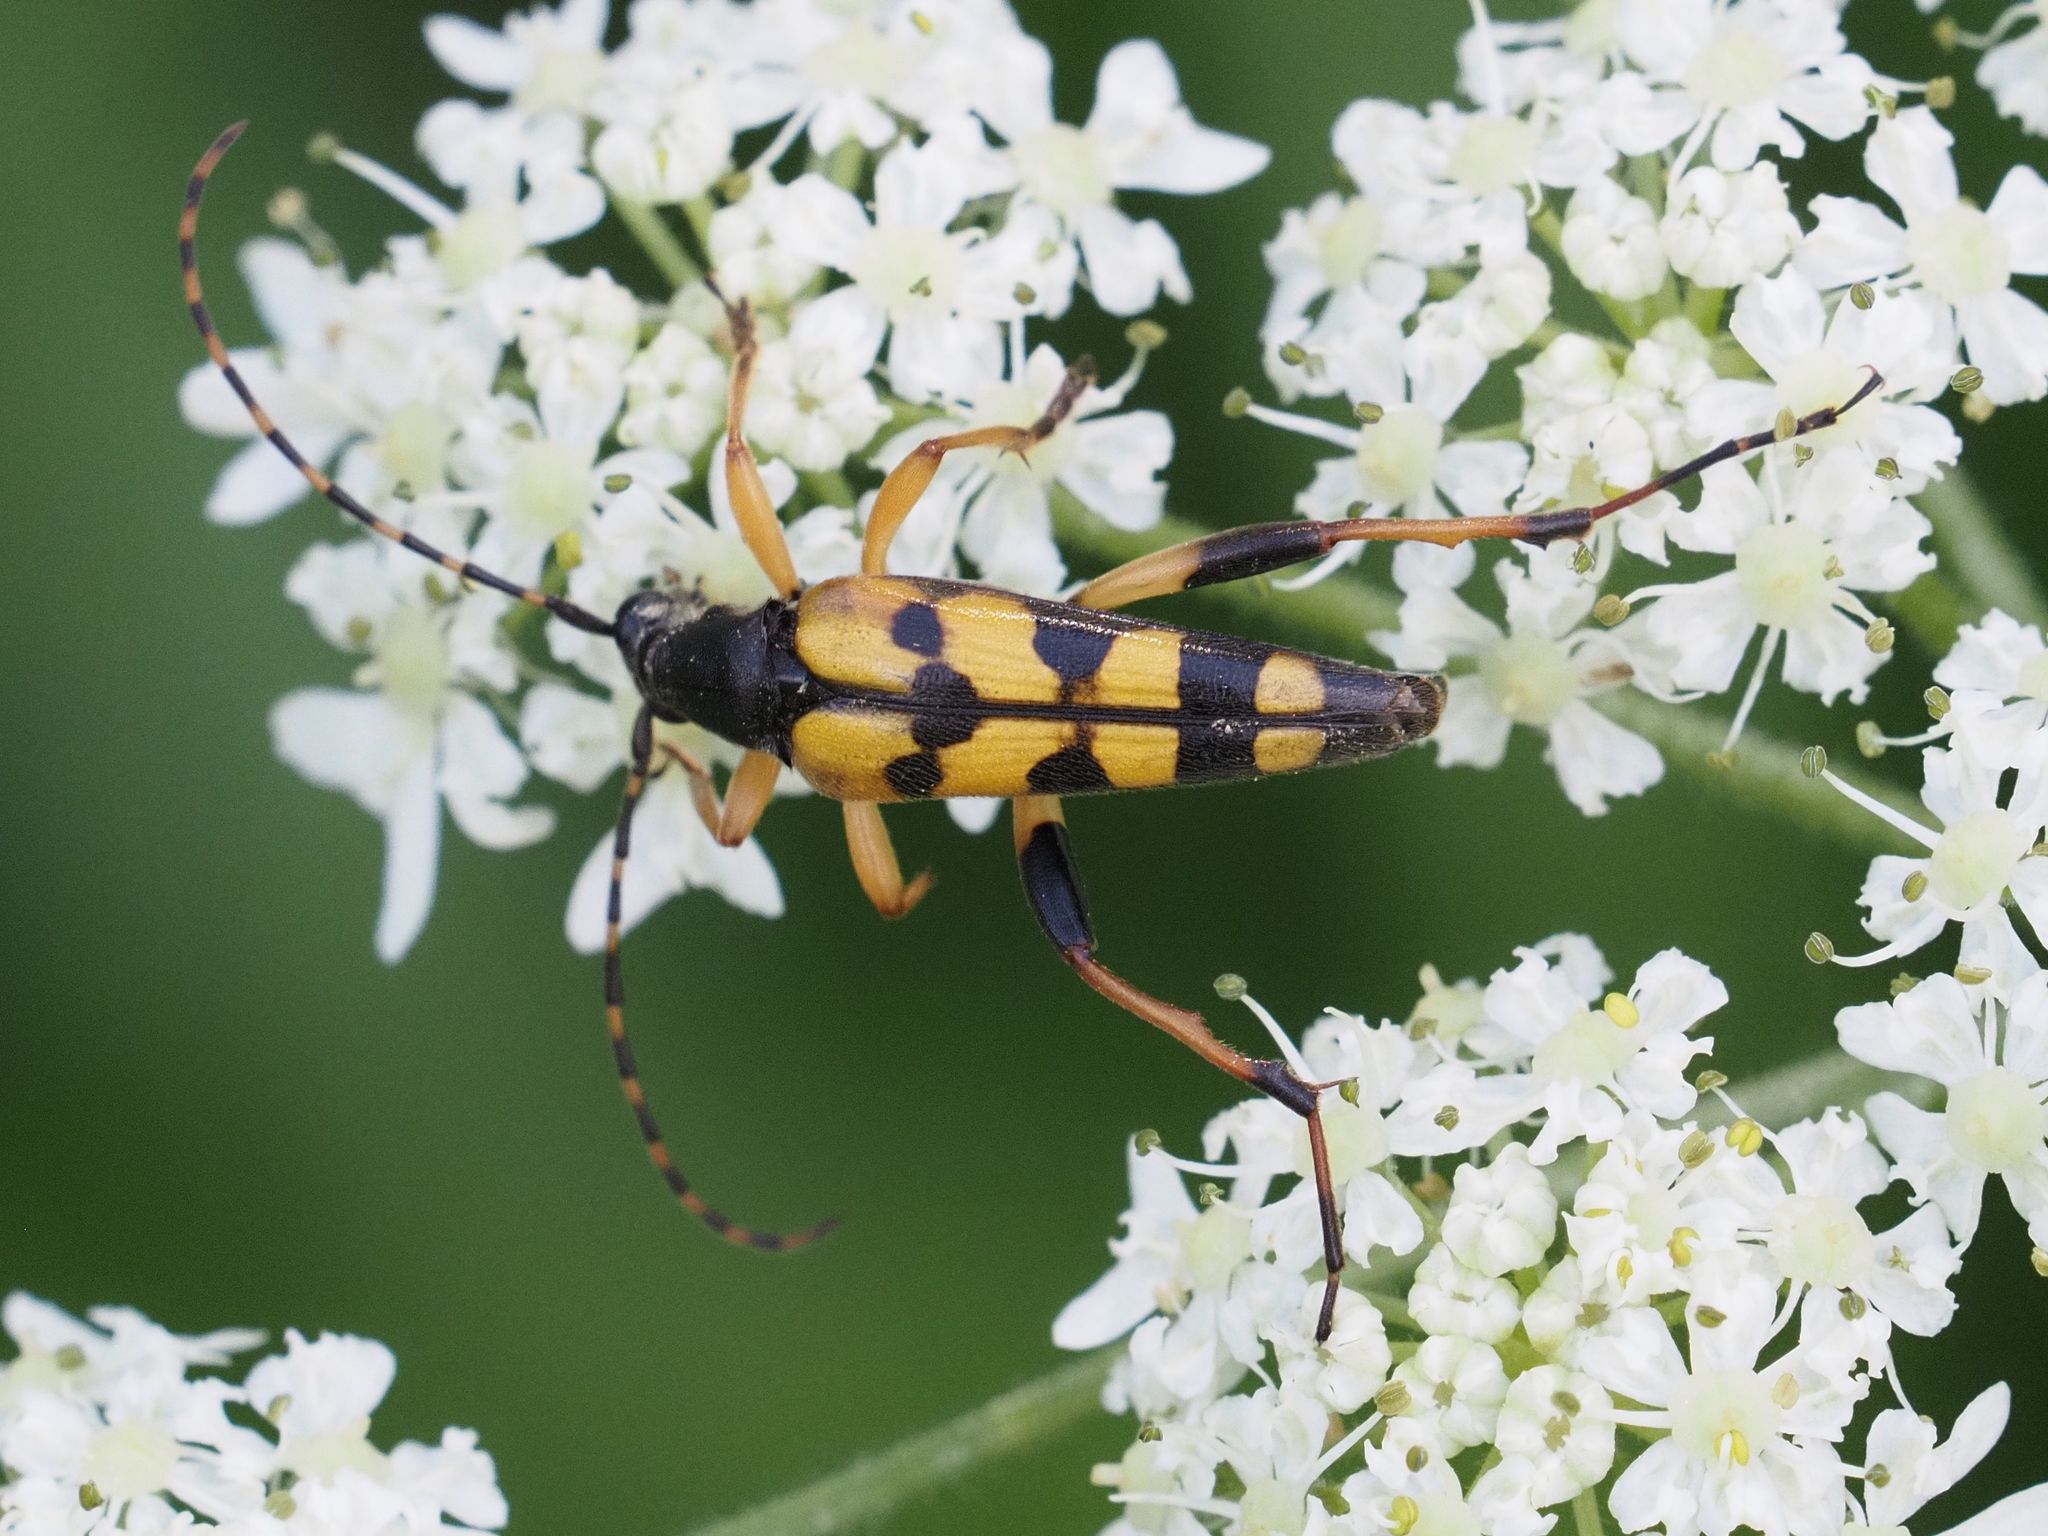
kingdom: Animalia
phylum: Arthropoda
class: Insecta
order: Coleoptera
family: Cerambycidae
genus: Rutpela
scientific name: Rutpela maculata
